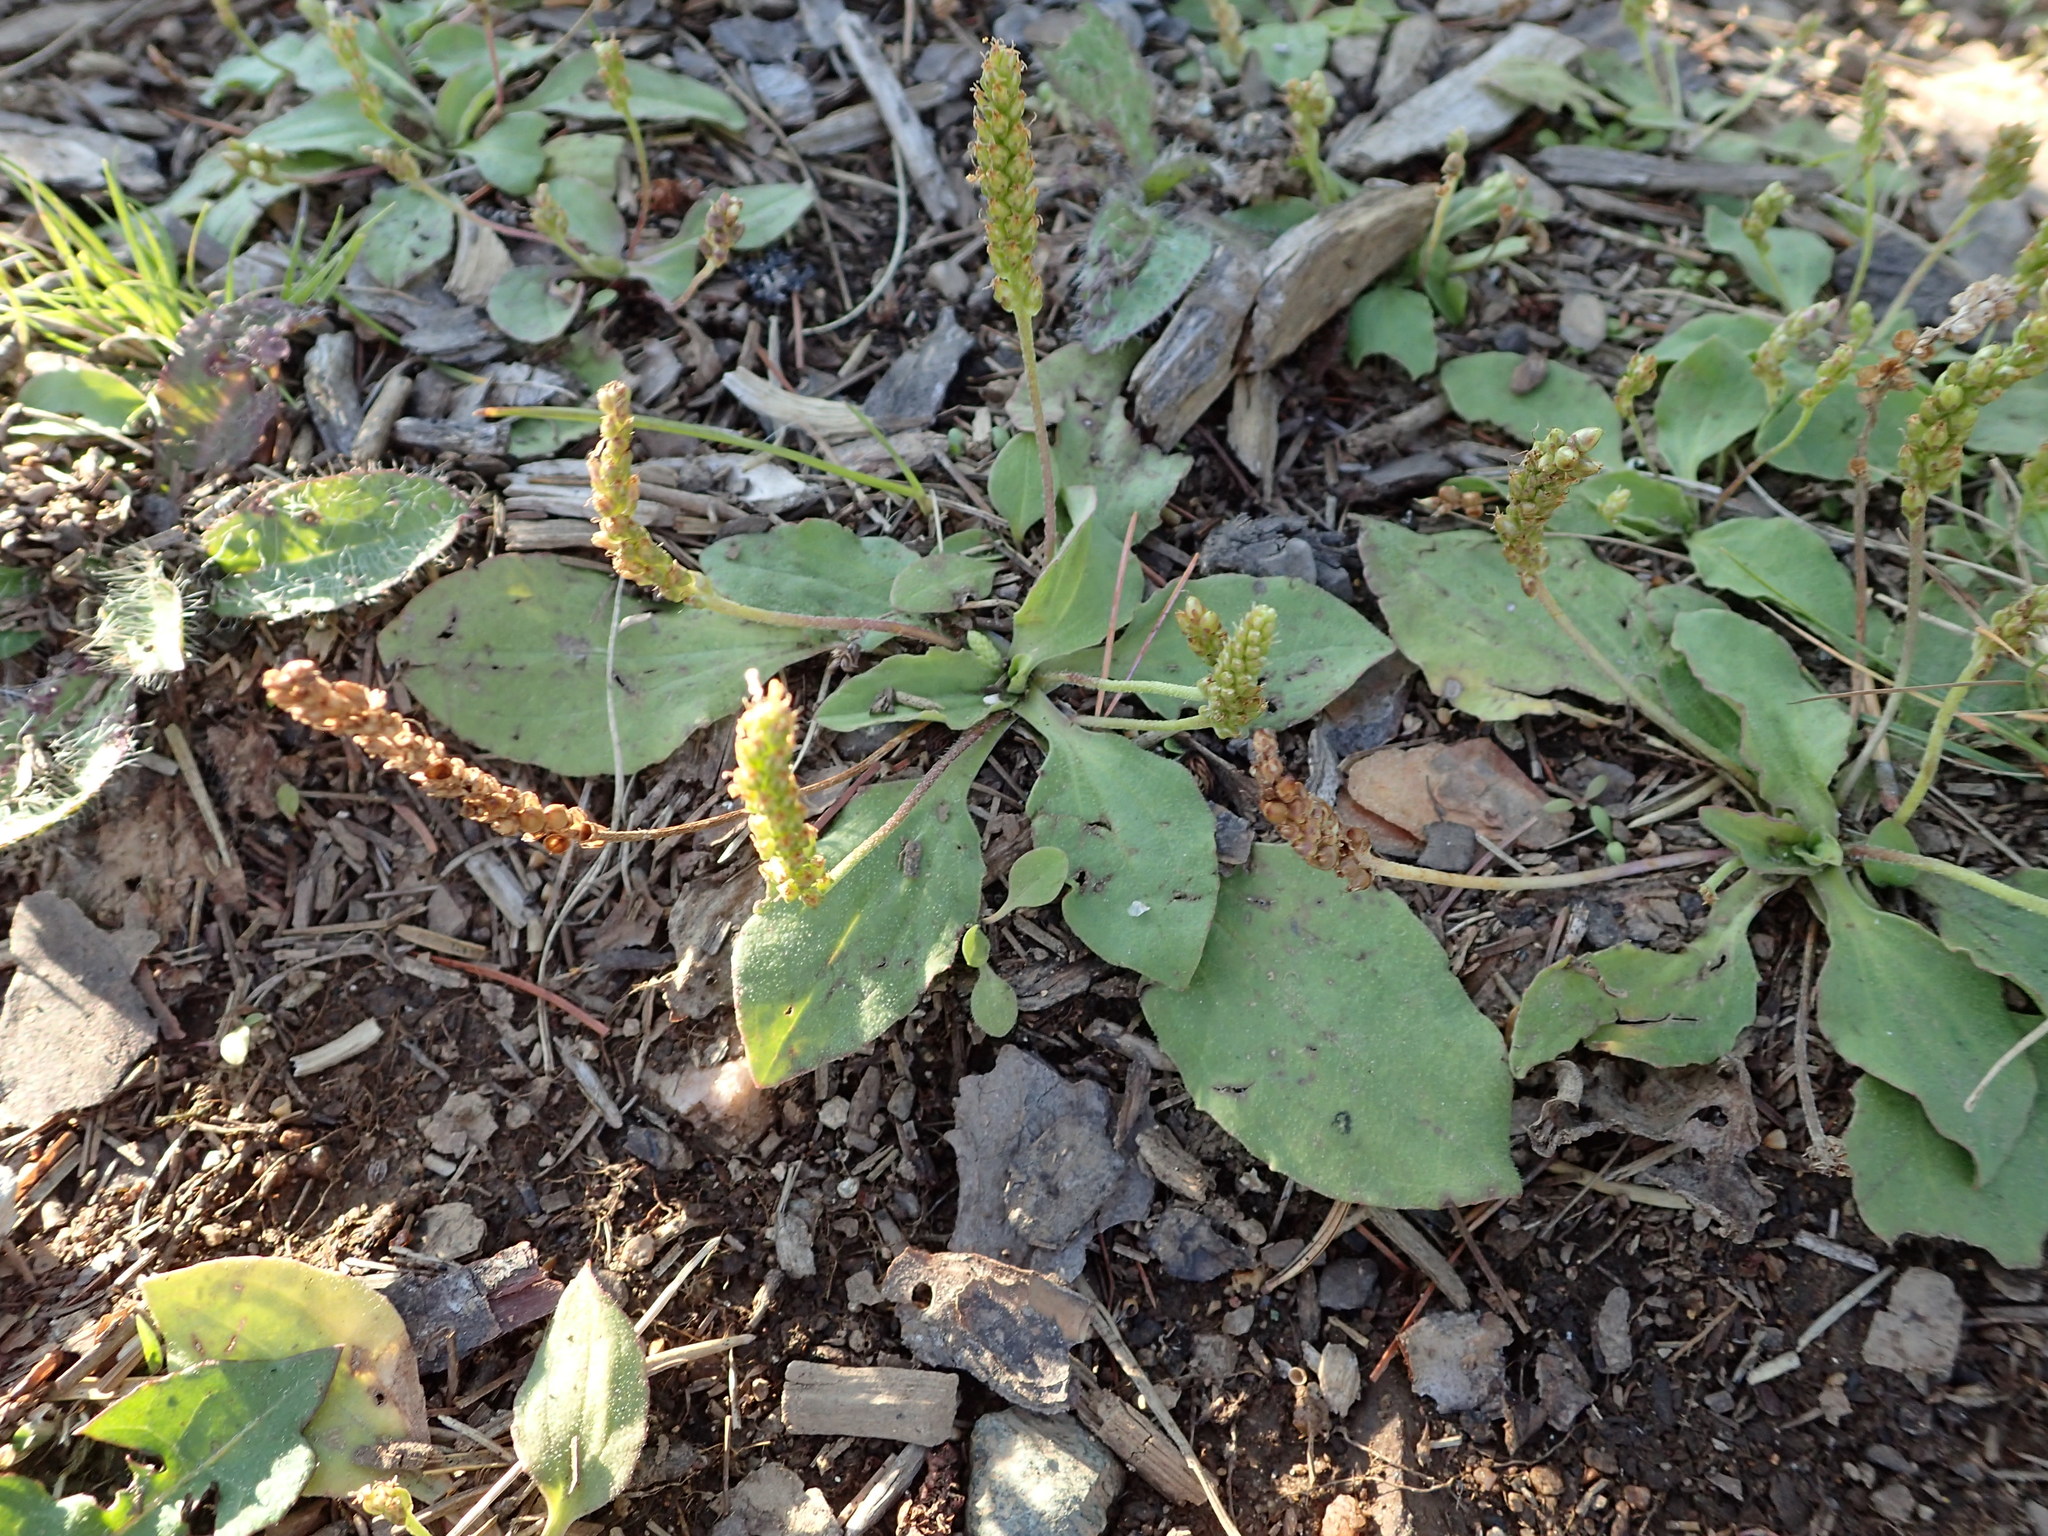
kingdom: Plantae
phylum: Tracheophyta
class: Magnoliopsida
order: Lamiales
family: Plantaginaceae
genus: Plantago
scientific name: Plantago major
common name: Common plantain
